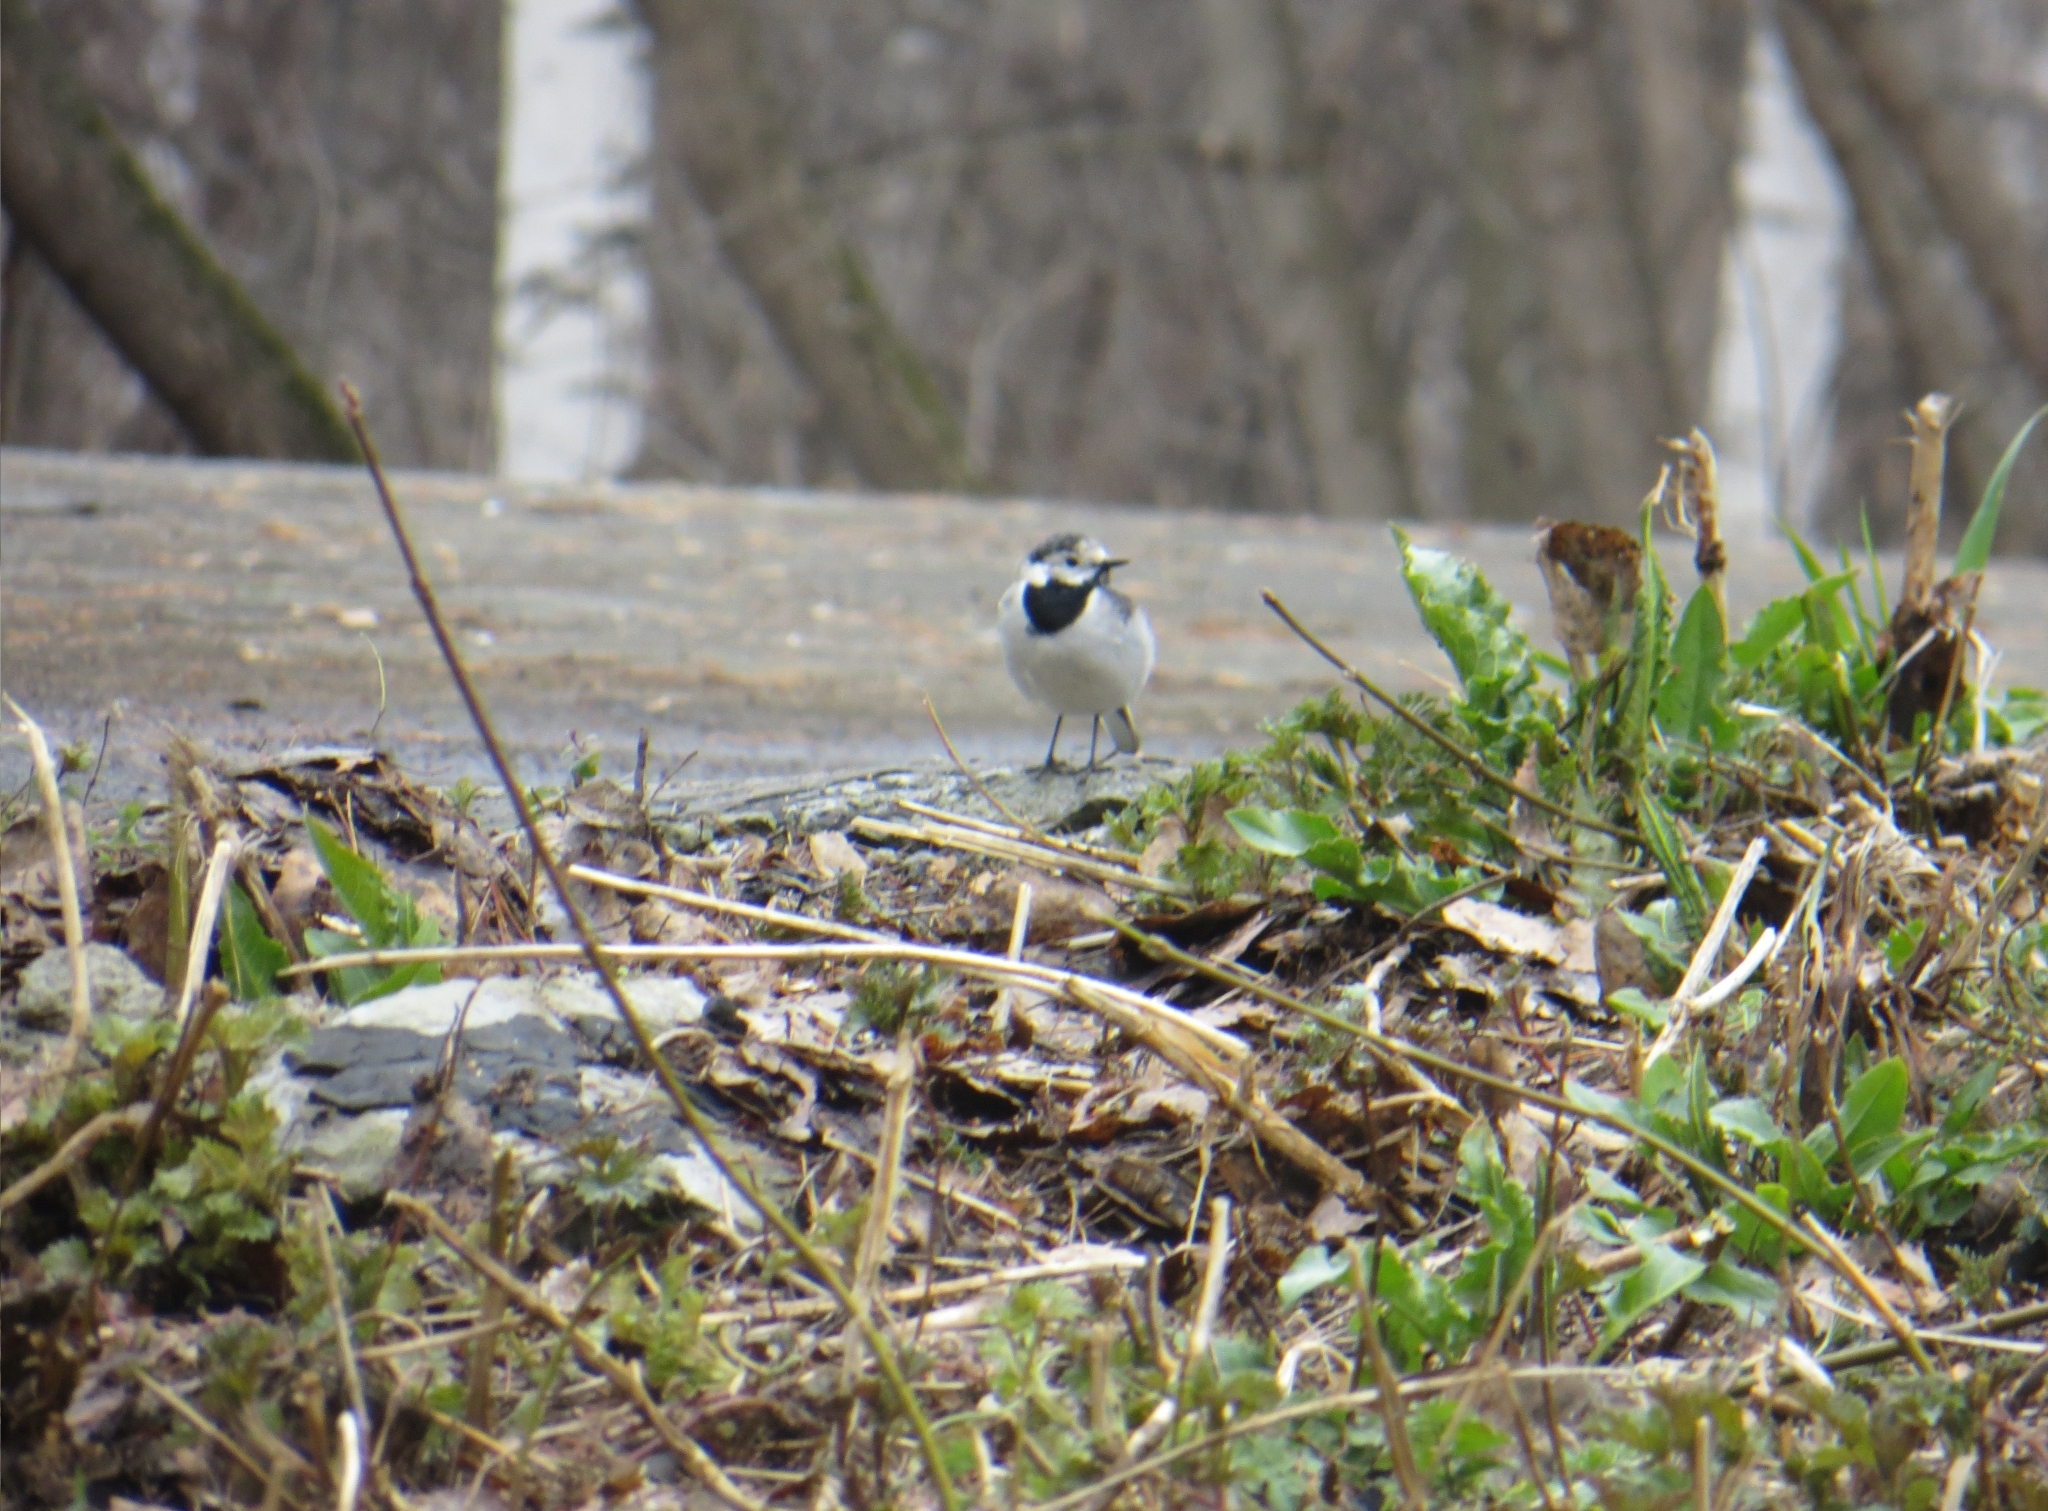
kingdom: Animalia
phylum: Chordata
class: Aves
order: Passeriformes
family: Motacillidae
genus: Motacilla
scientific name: Motacilla alba
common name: White wagtail
